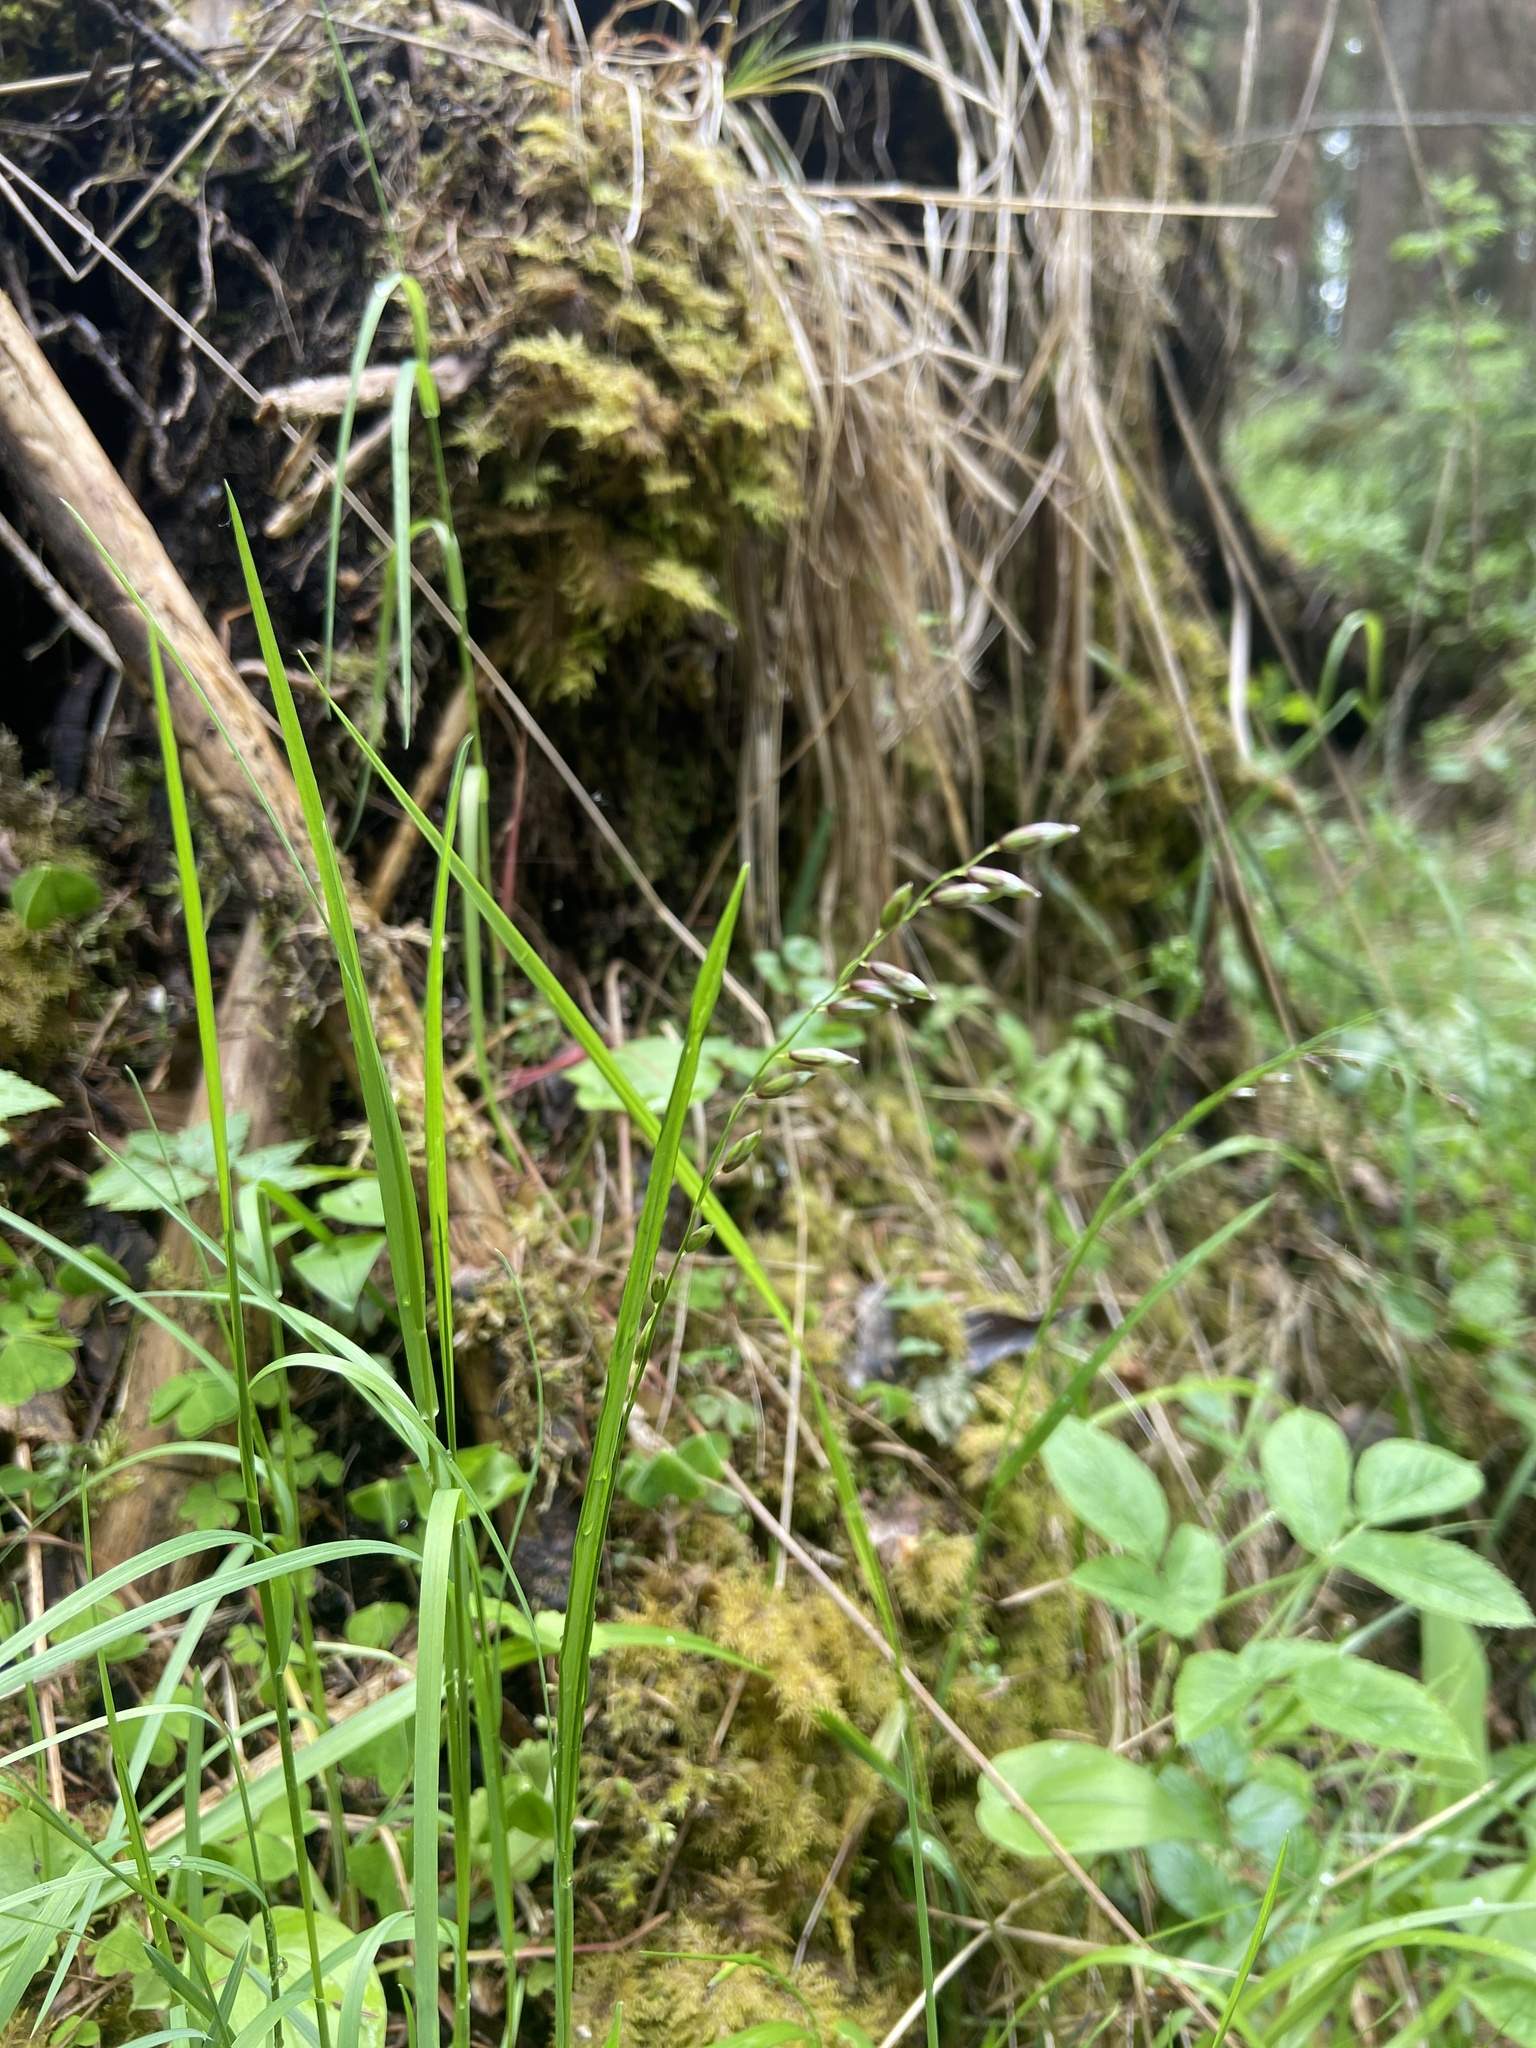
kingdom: Plantae
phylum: Tracheophyta
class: Liliopsida
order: Poales
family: Poaceae
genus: Melica
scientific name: Melica nutans
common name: Mountain melick
